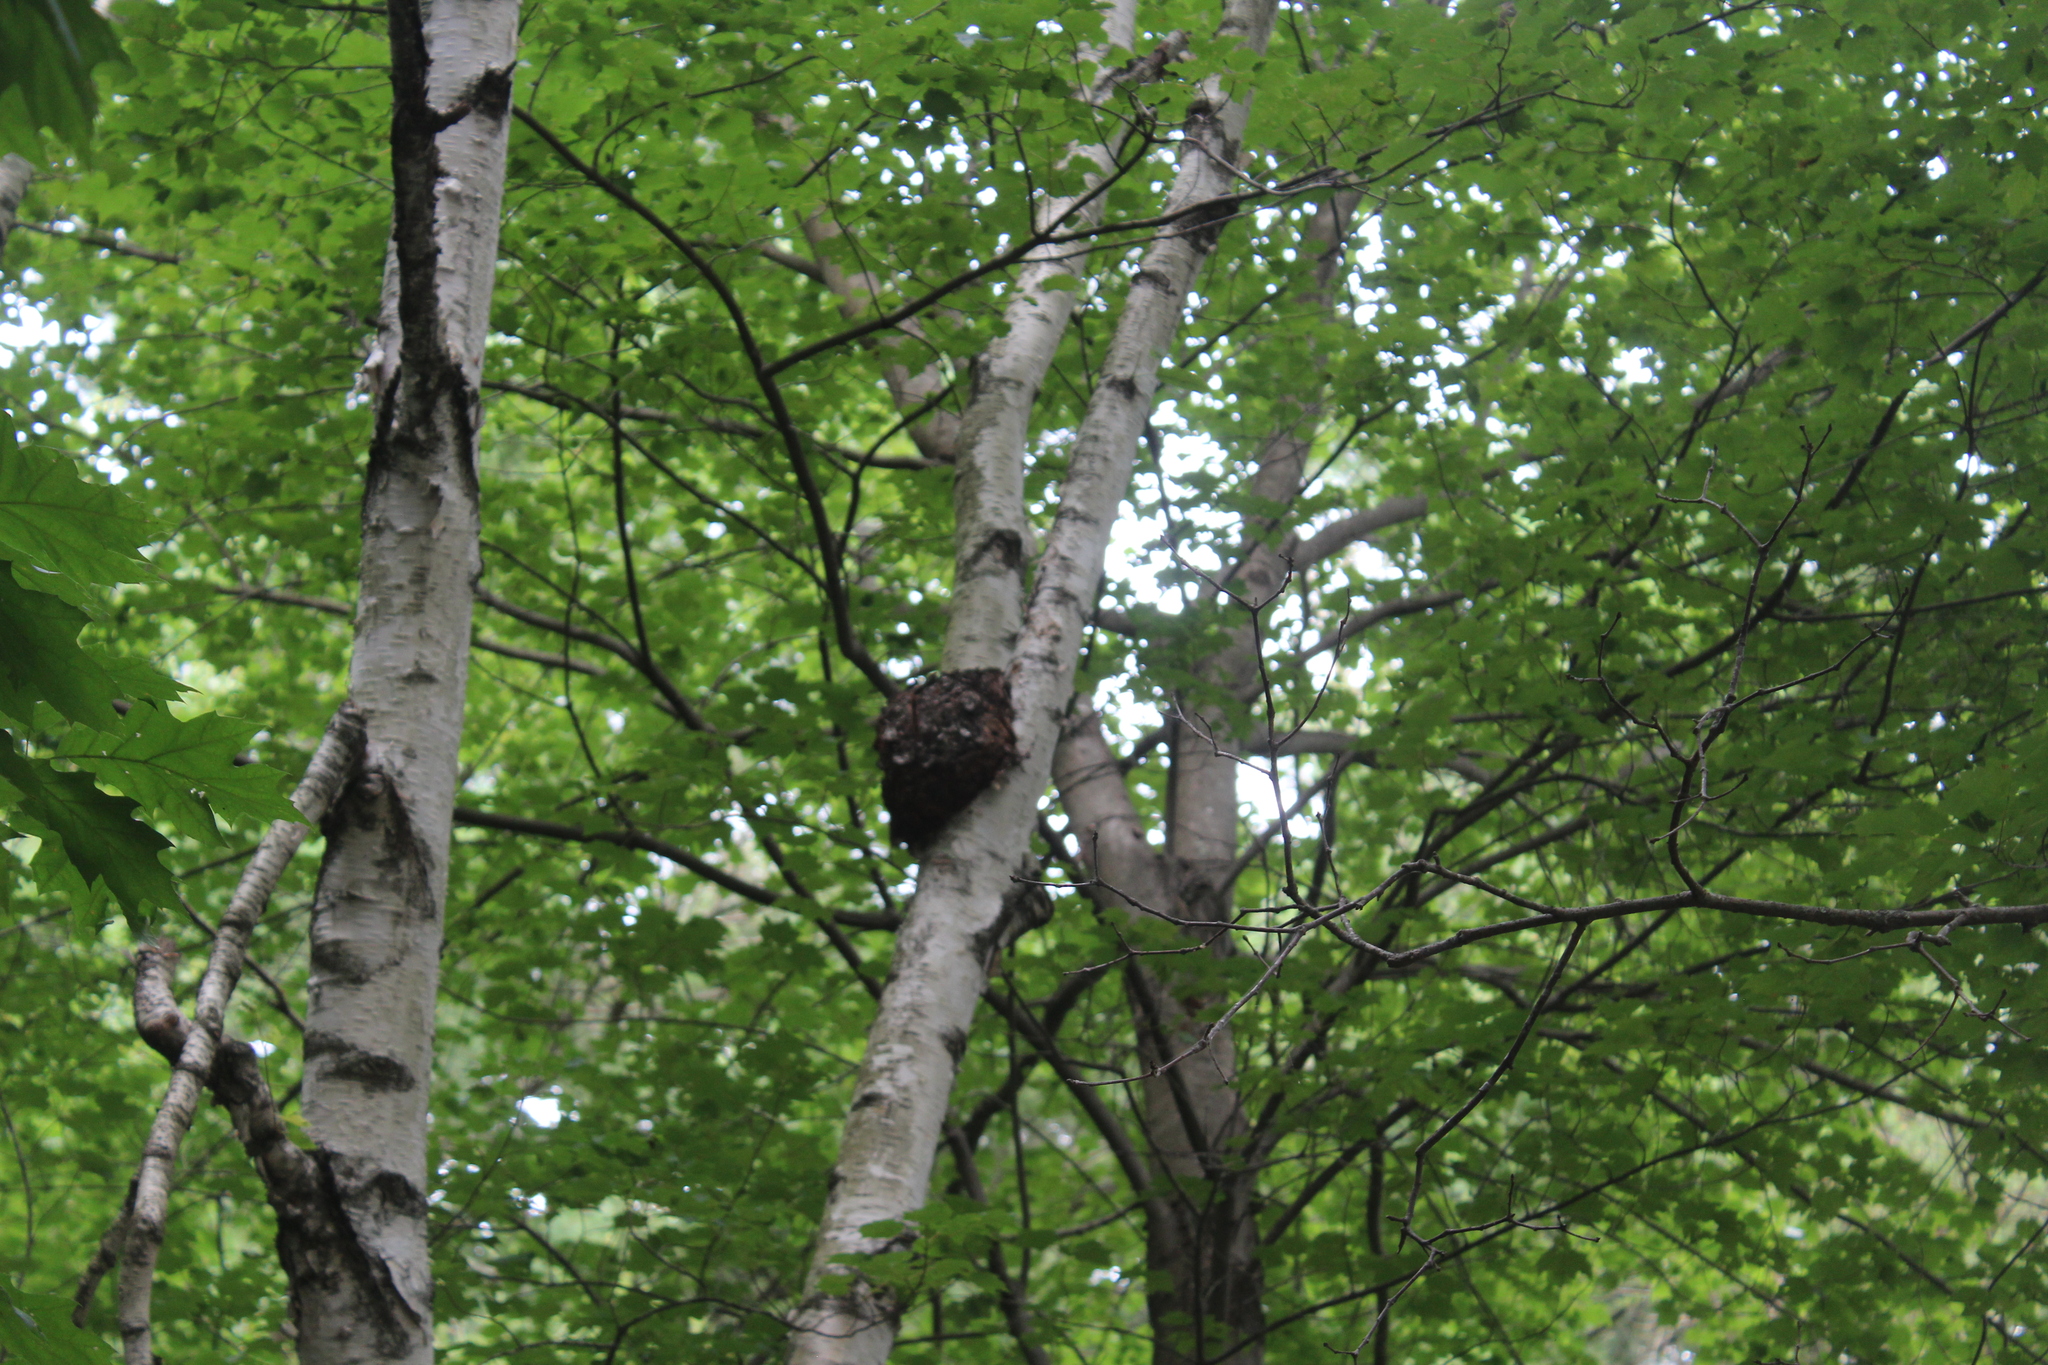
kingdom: Bacteria
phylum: Proteobacteria
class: Alphaproteobacteria
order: Rhizobiales
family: Rhizobiaceae
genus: Rhizobium
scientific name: Rhizobium Agrobacterium radiobacter
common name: Bacterial crown gall
